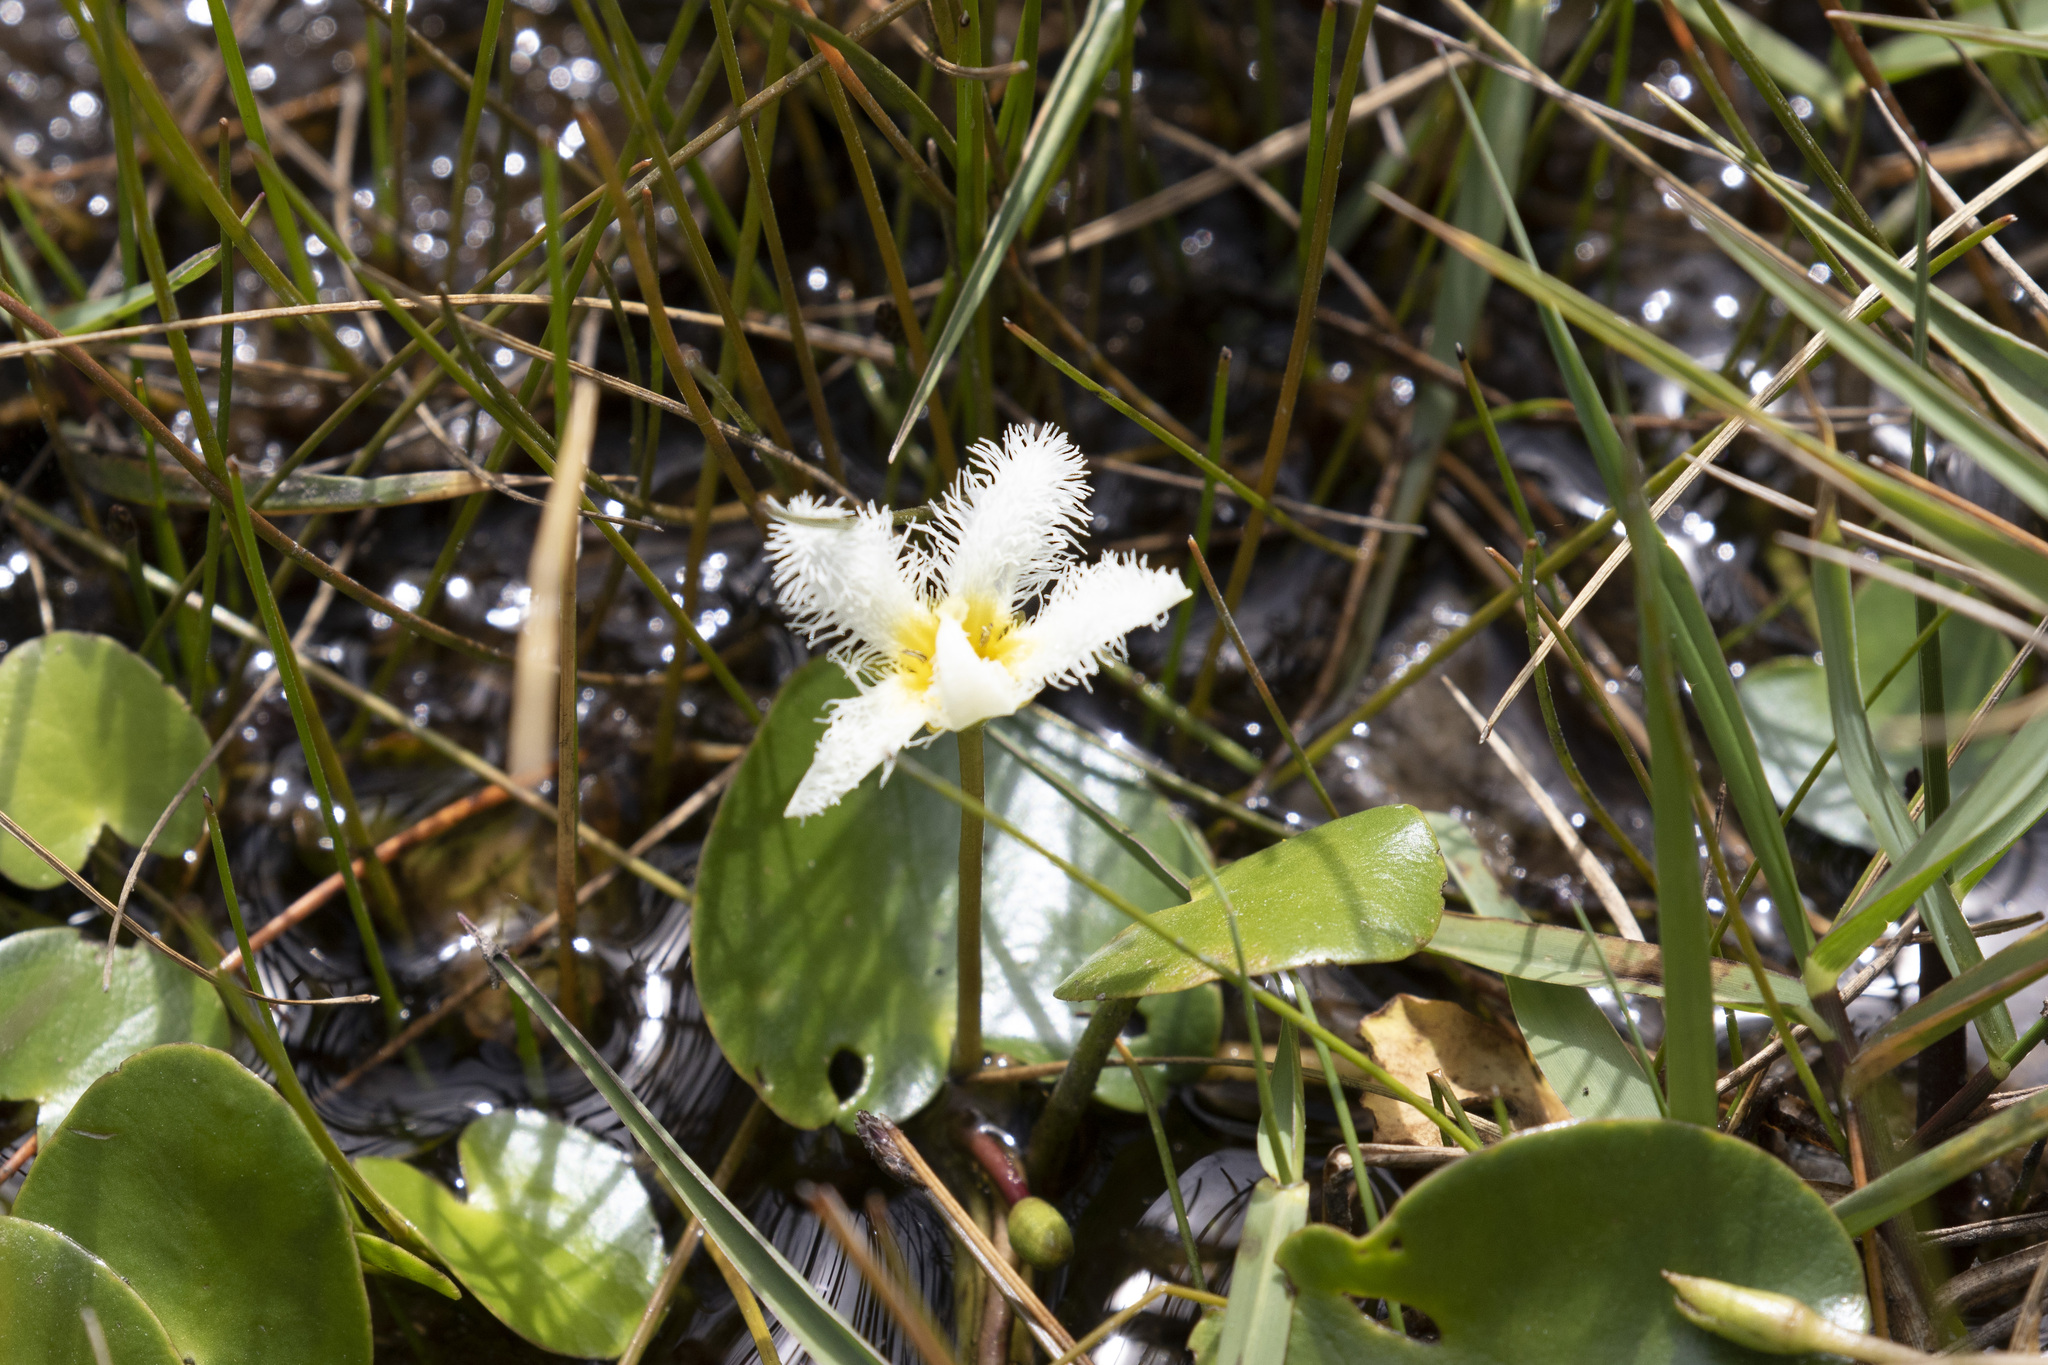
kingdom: Plantae
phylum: Tracheophyta
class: Magnoliopsida
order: Asterales
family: Menyanthaceae
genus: Nymphoides
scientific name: Nymphoides humboldtiana
